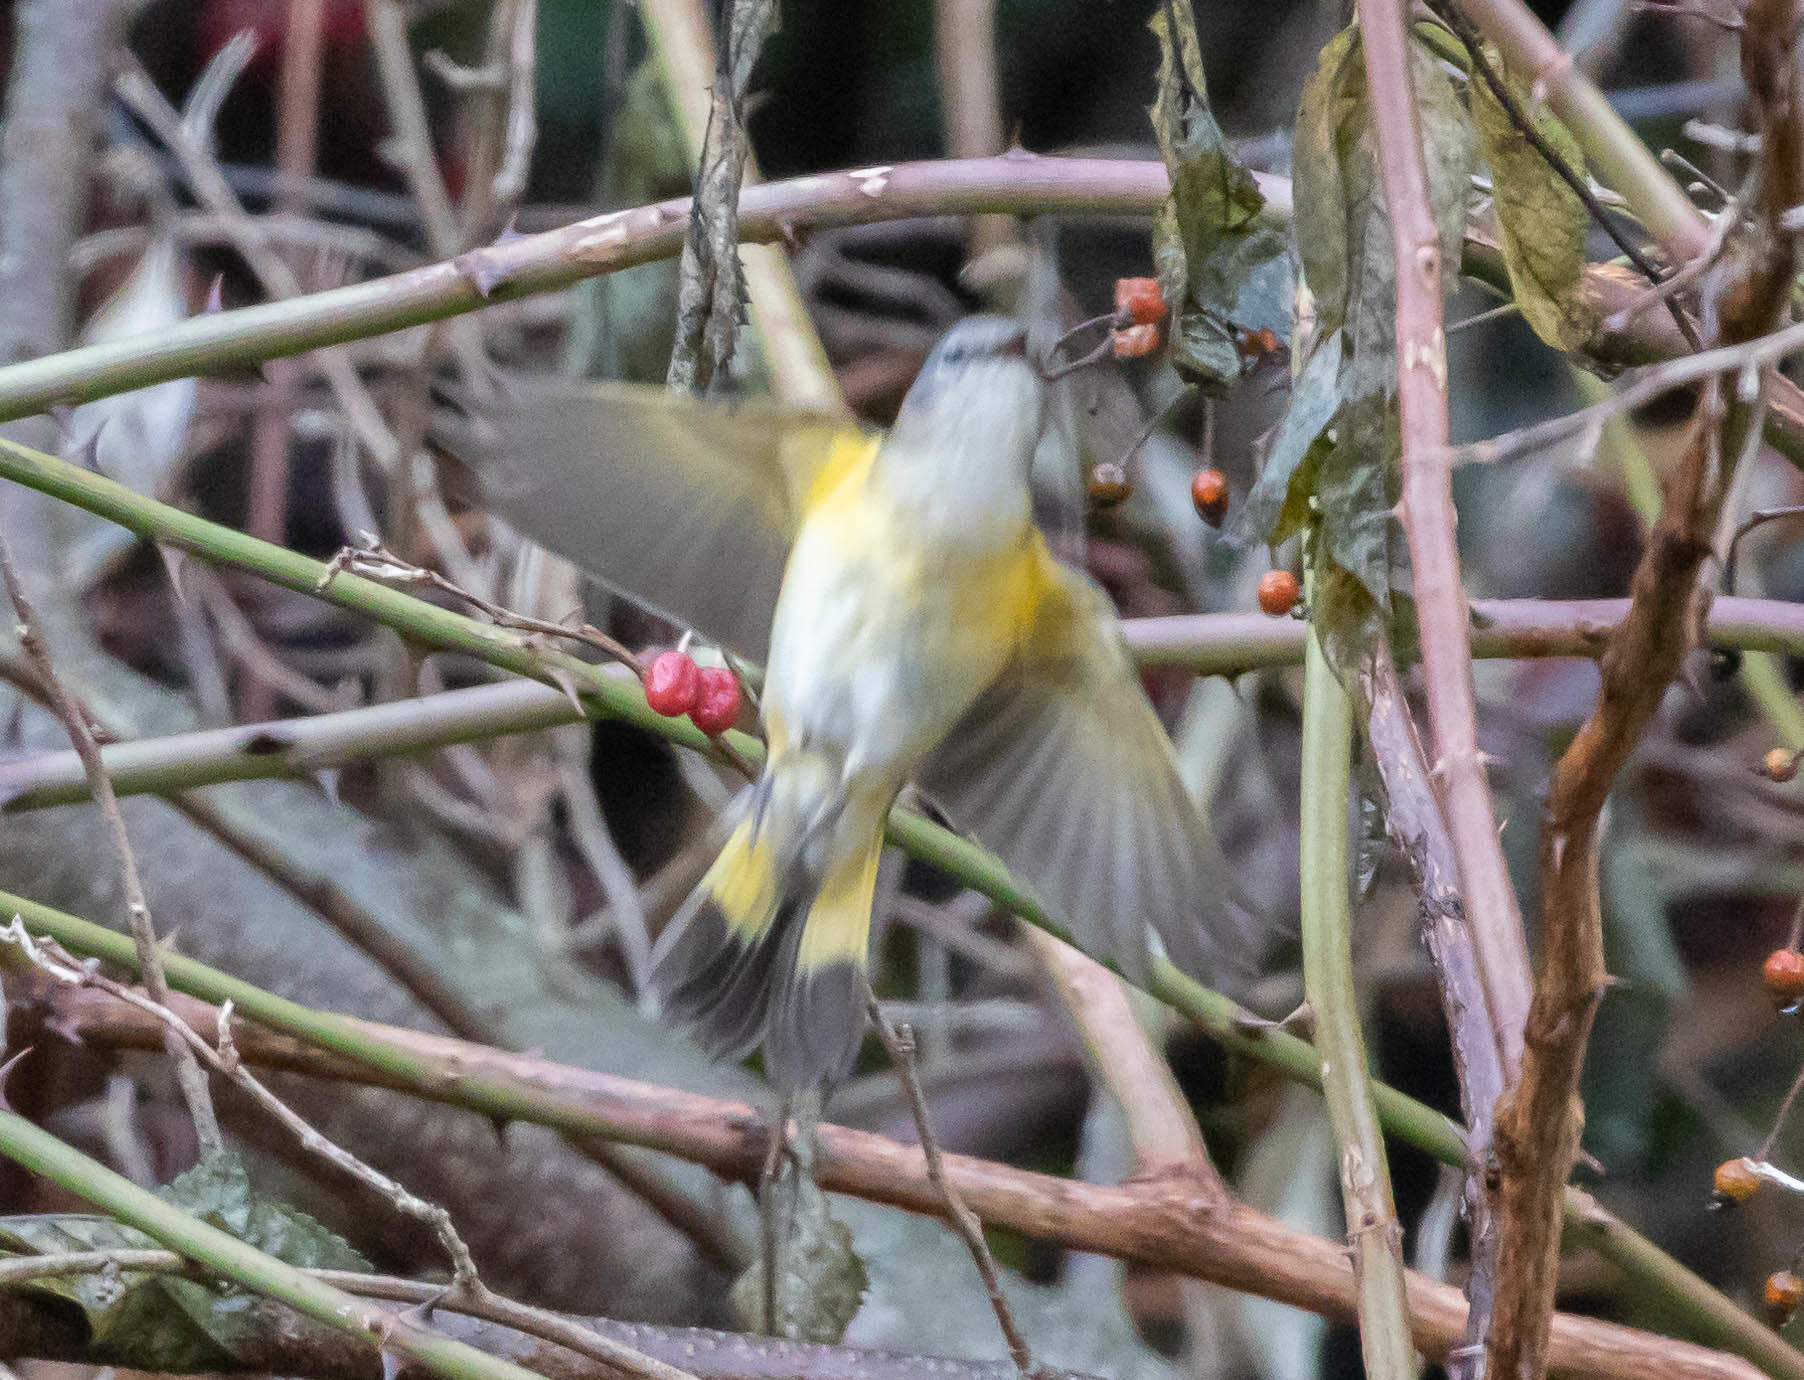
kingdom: Animalia
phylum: Chordata
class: Aves
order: Passeriformes
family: Parulidae
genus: Setophaga
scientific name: Setophaga ruticilla
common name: American redstart
